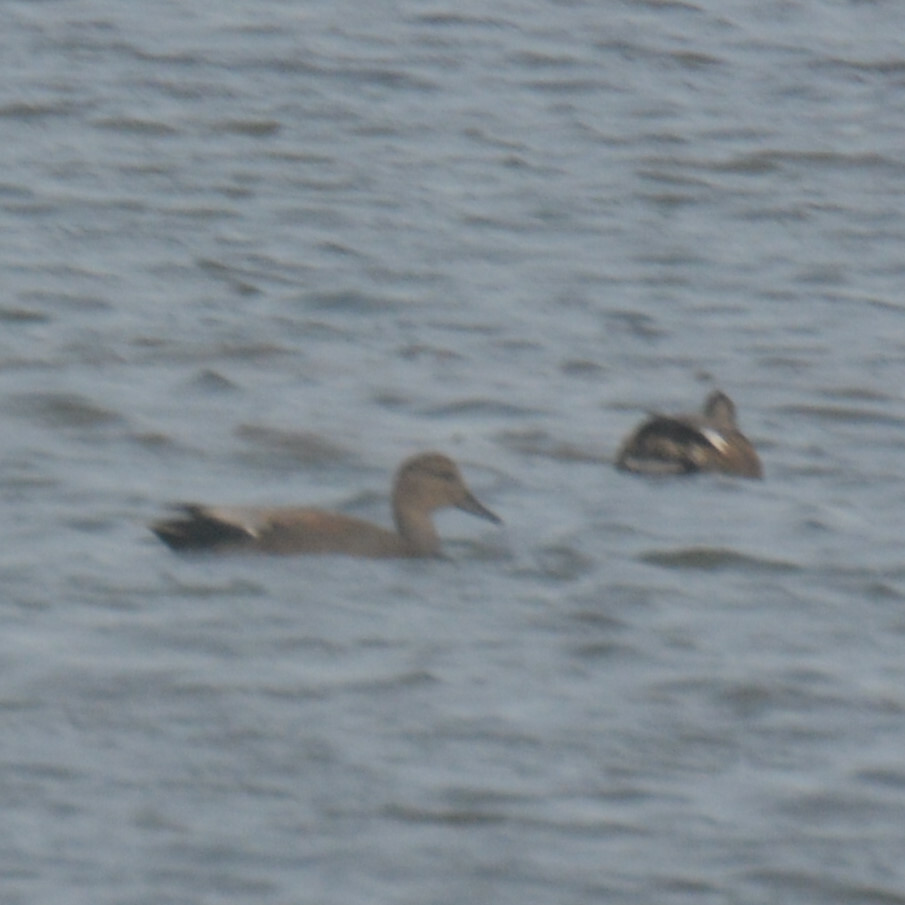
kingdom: Animalia
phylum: Chordata
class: Aves
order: Anseriformes
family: Anatidae
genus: Mareca
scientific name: Mareca strepera
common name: Gadwall
